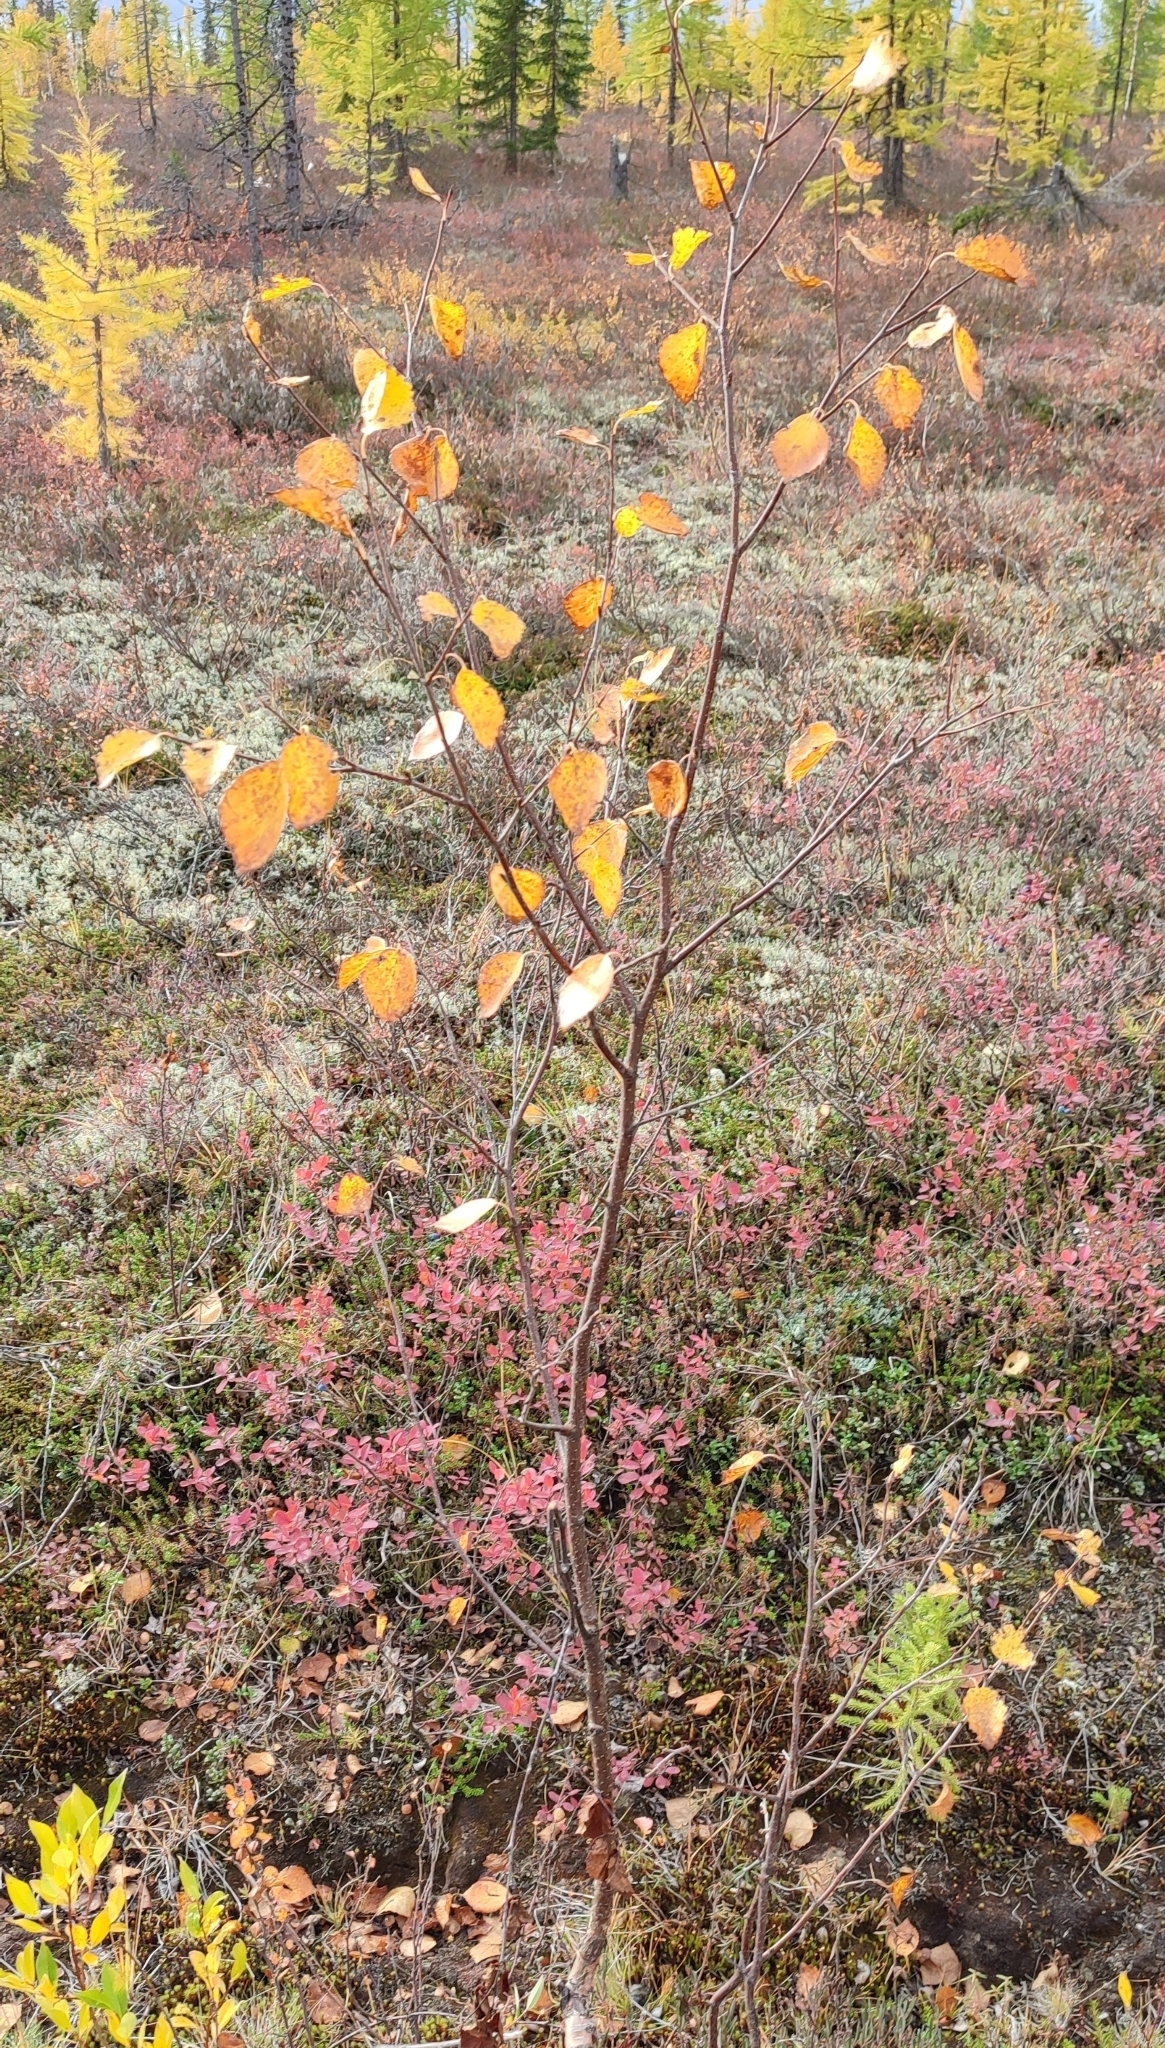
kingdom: Plantae
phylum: Tracheophyta
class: Magnoliopsida
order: Fagales
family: Betulaceae
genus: Betula
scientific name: Betula pubescens
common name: Downy birch
